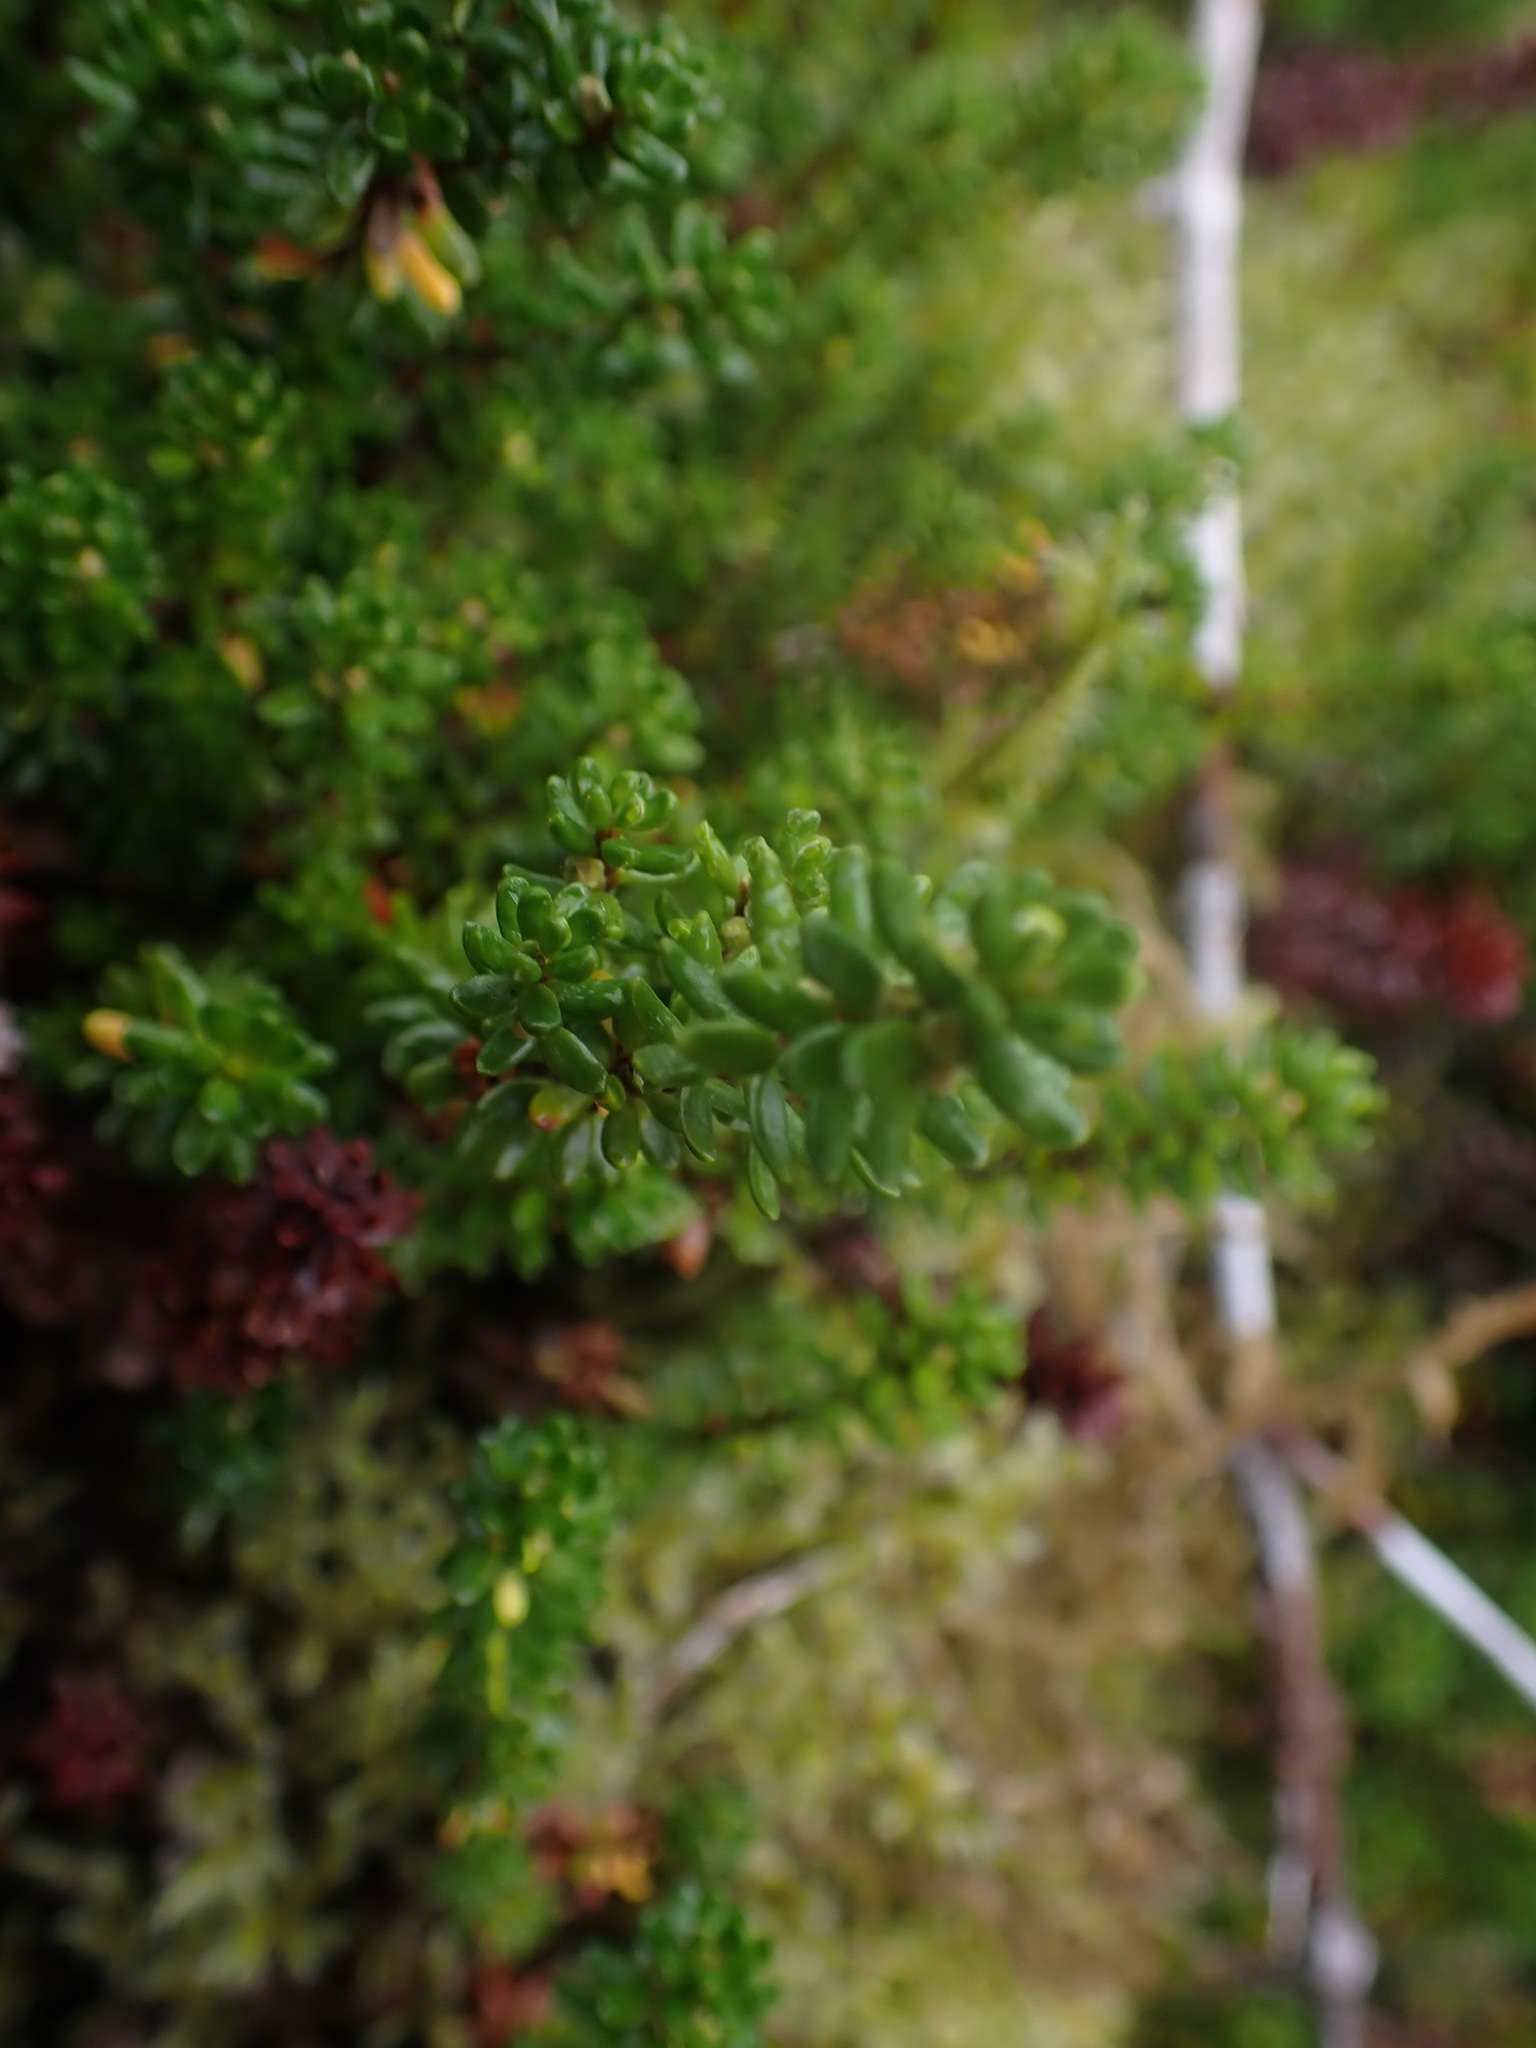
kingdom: Plantae
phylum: Tracheophyta
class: Magnoliopsida
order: Ericales
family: Ericaceae
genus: Empetrum
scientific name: Empetrum nigrum
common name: Black crowberry
